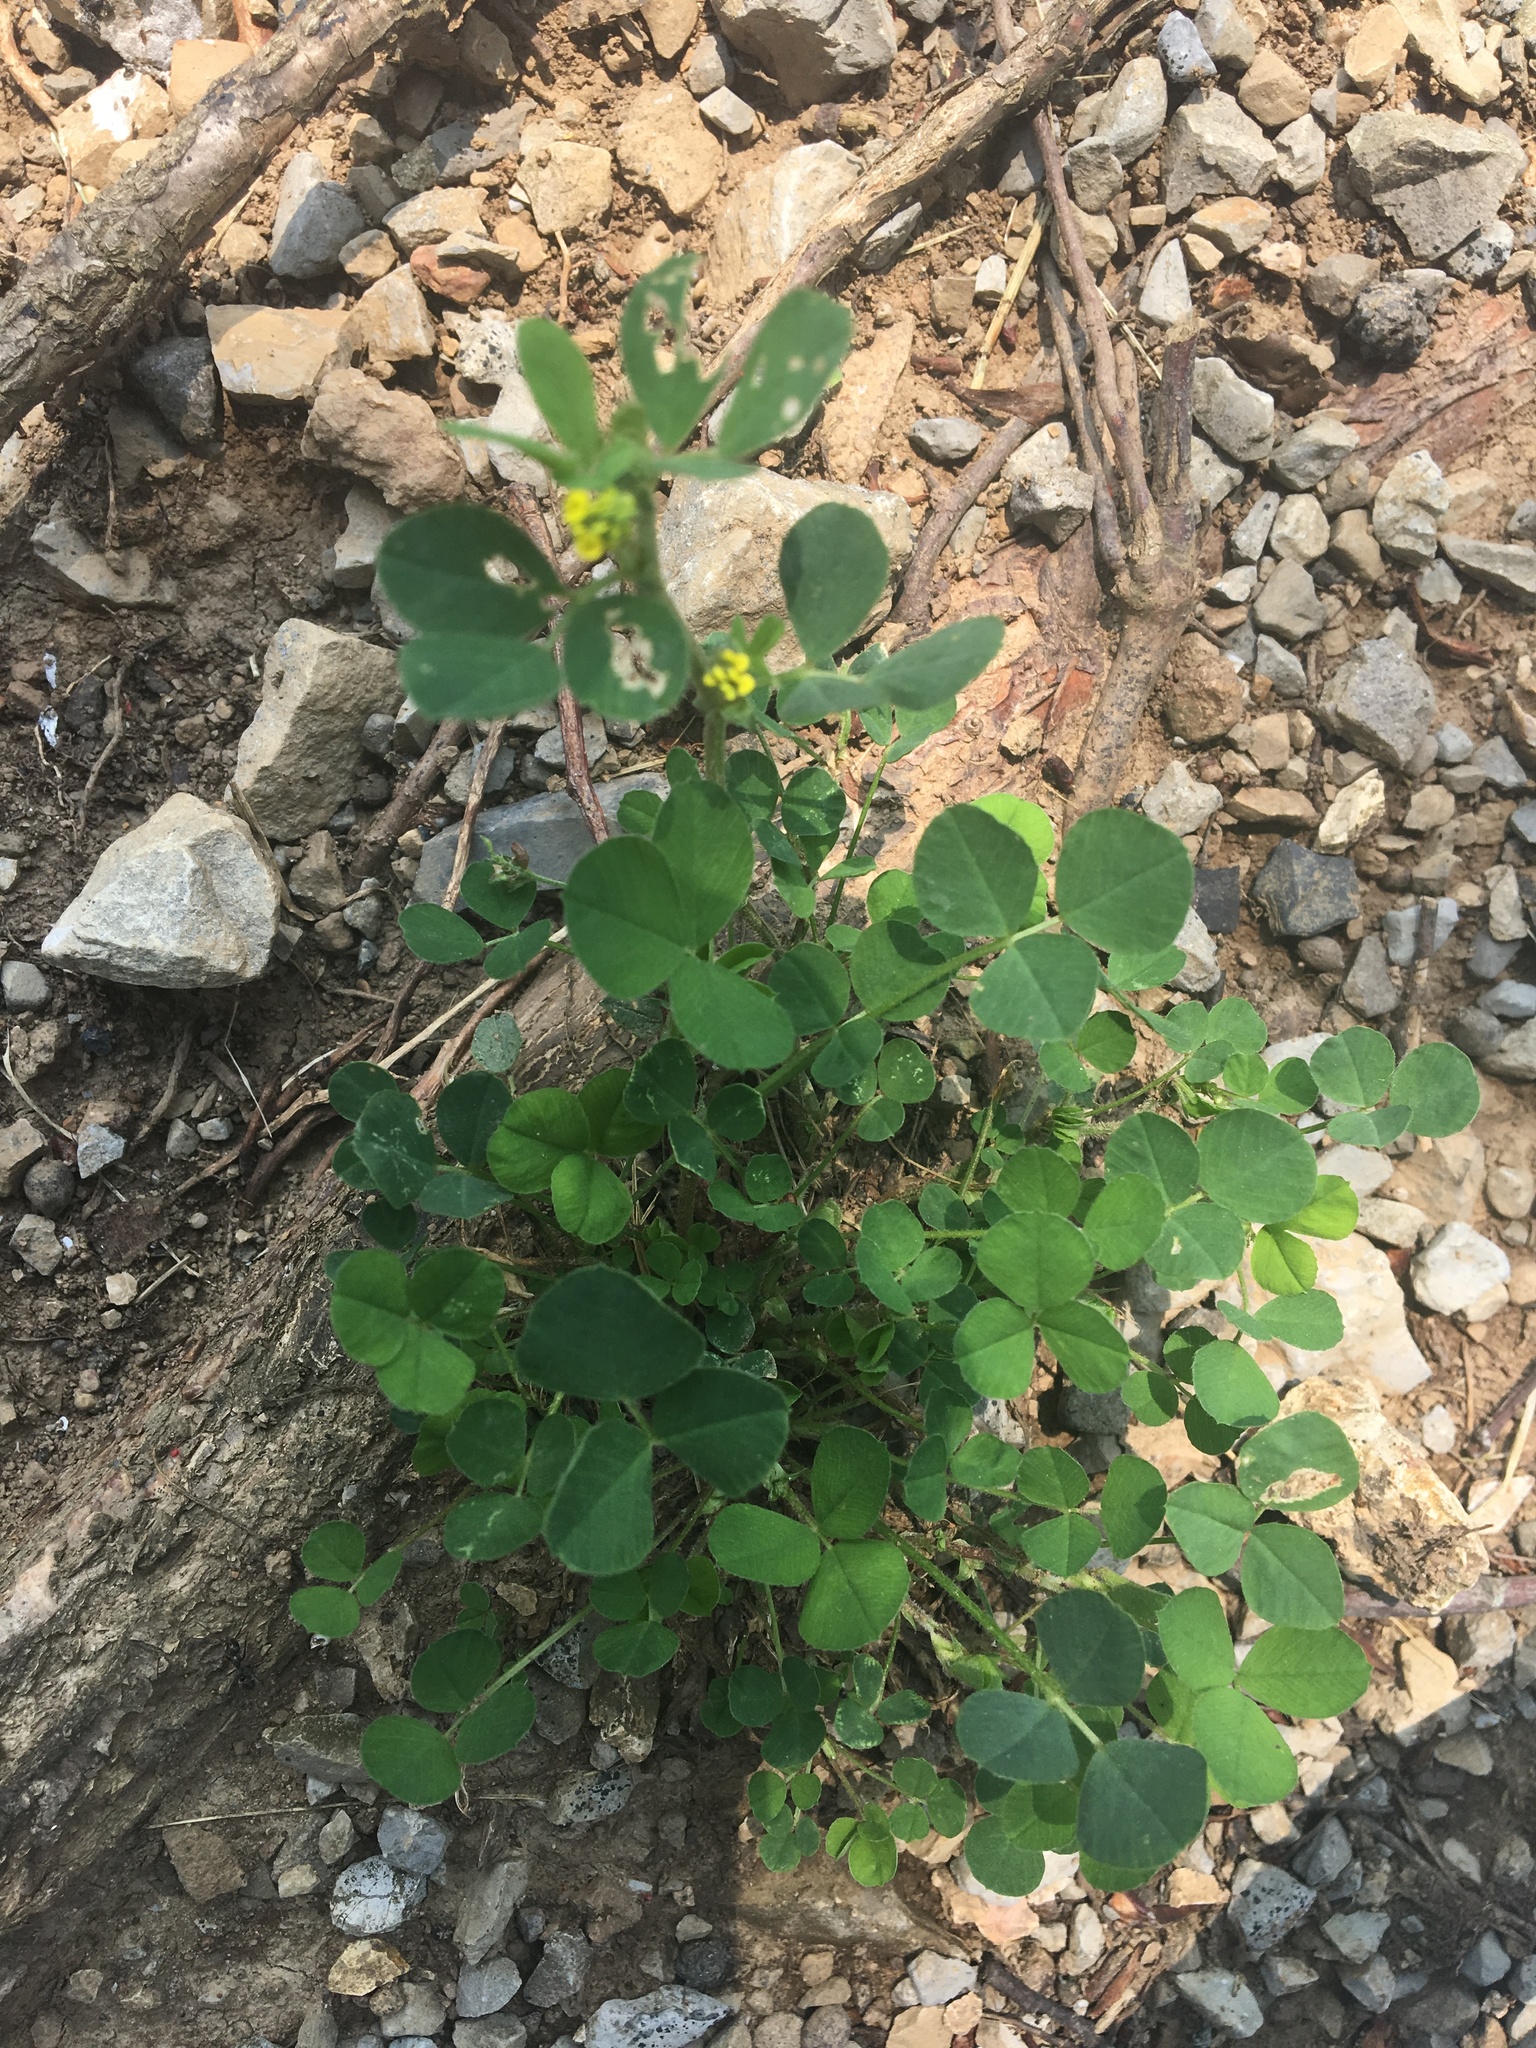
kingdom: Plantae
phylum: Tracheophyta
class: Magnoliopsida
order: Fabales
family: Fabaceae
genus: Medicago
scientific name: Medicago lupulina
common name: Black medick
